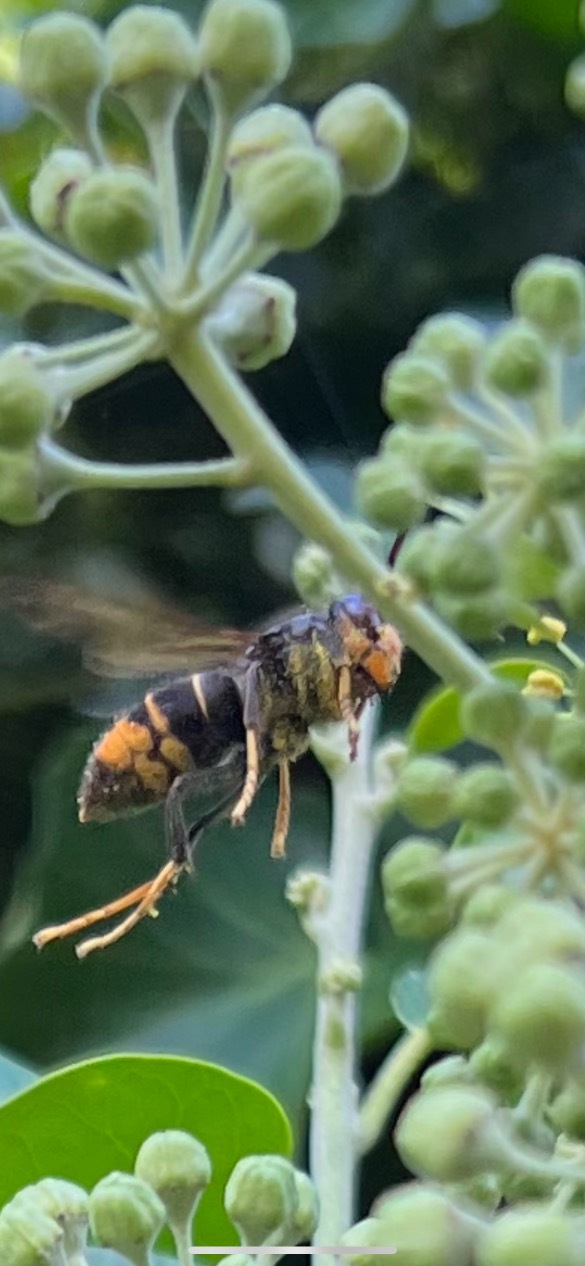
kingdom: Animalia
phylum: Arthropoda
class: Insecta
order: Hymenoptera
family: Vespidae
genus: Vespa
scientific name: Vespa velutina
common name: Asian hornet
